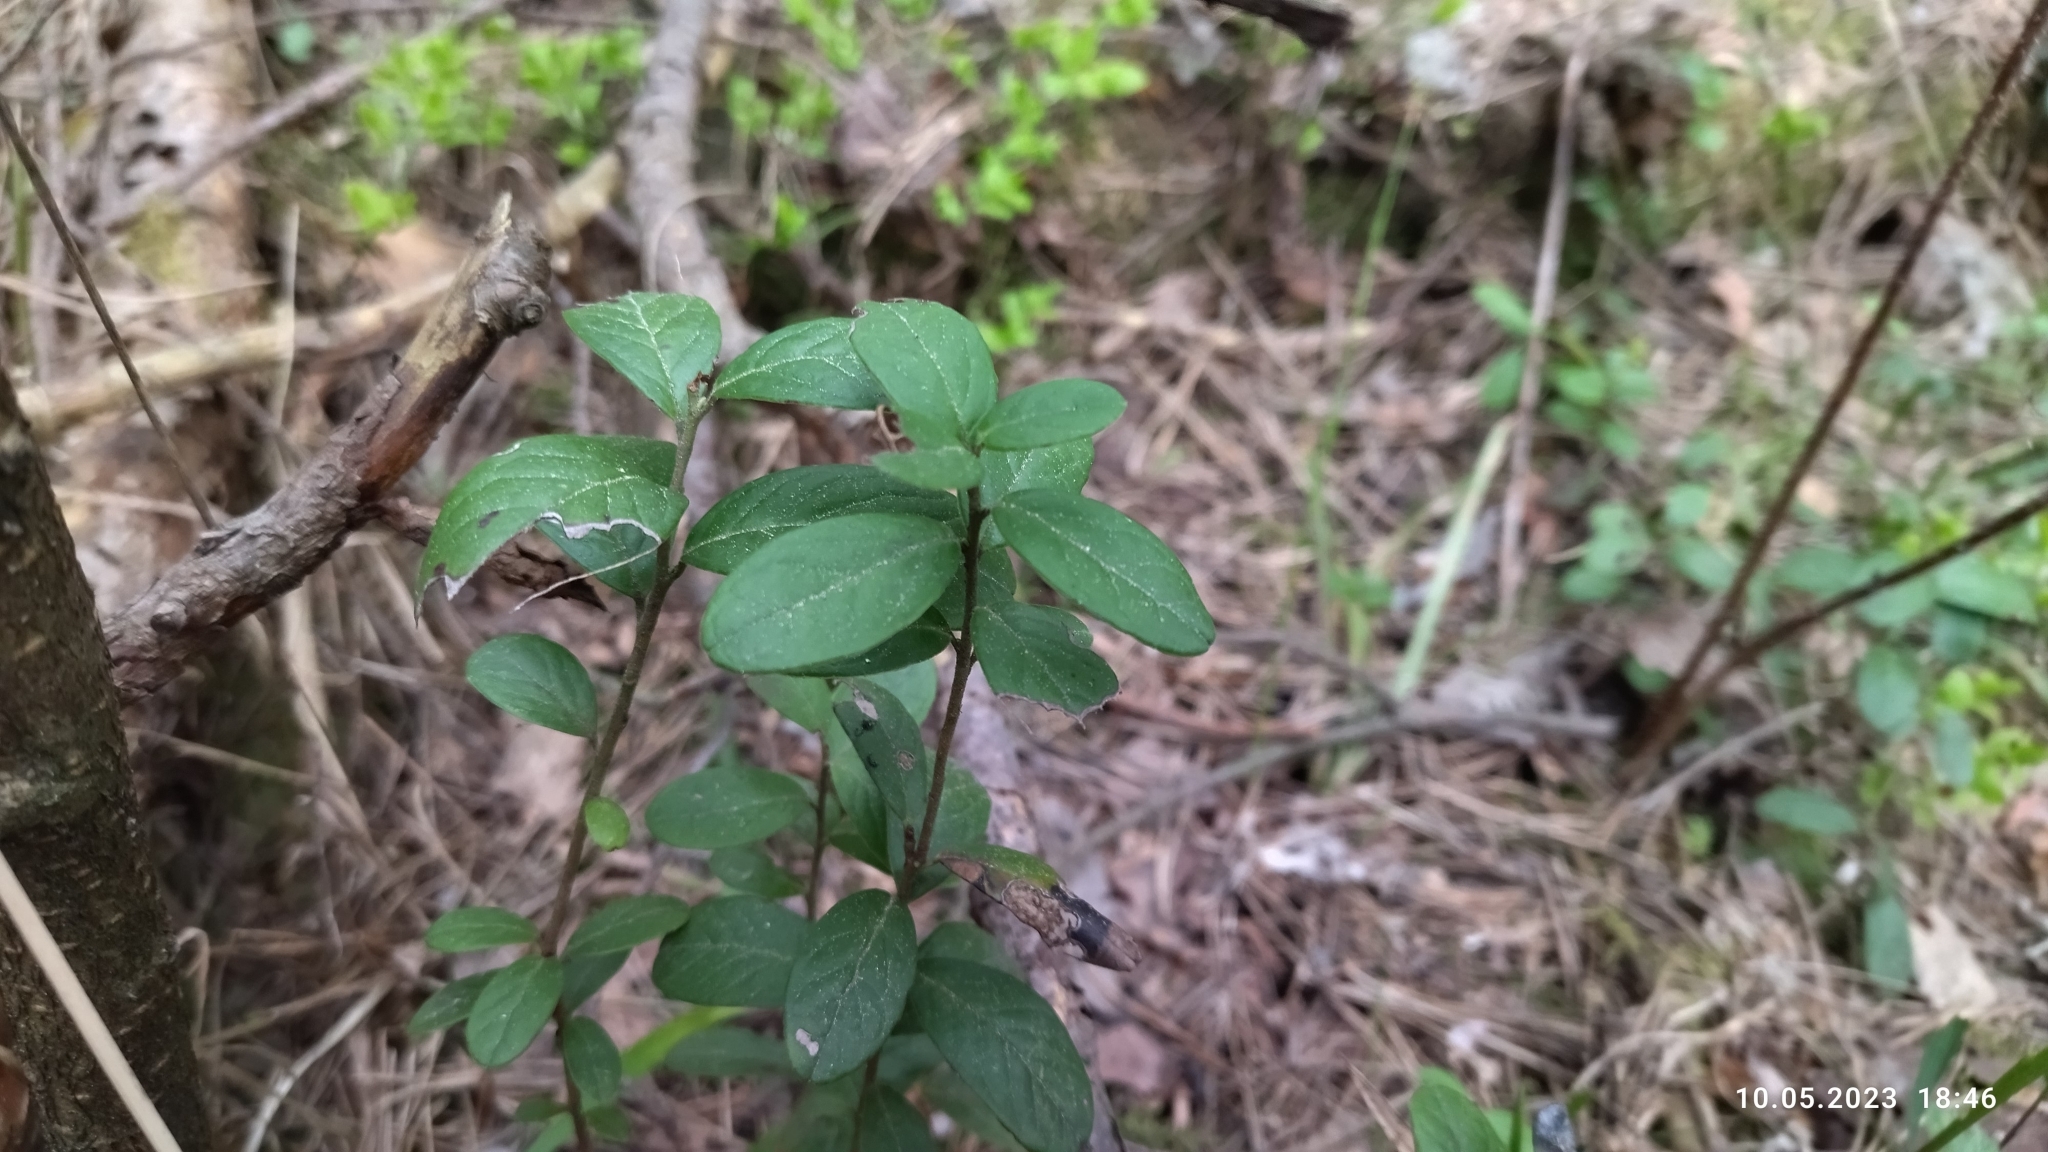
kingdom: Plantae
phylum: Tracheophyta
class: Magnoliopsida
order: Ericales
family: Ericaceae
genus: Vaccinium
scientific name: Vaccinium vitis-idaea
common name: Cowberry
